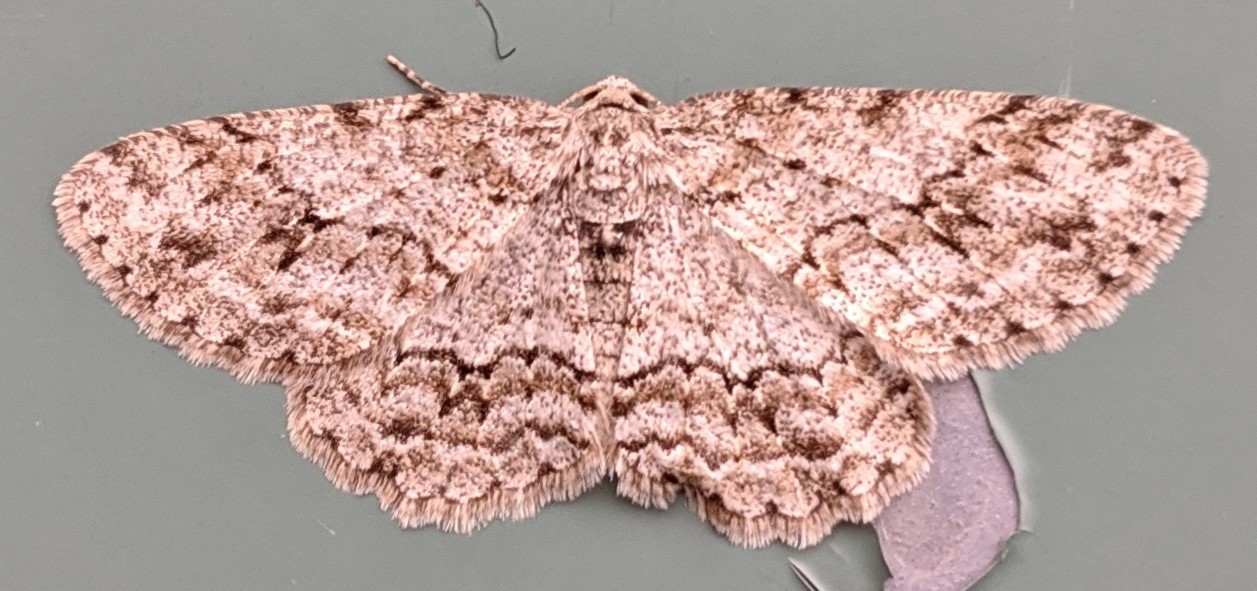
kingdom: Animalia
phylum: Arthropoda
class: Insecta
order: Lepidoptera
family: Geometridae
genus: Ectropis
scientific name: Ectropis crepuscularia
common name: Engrailed
